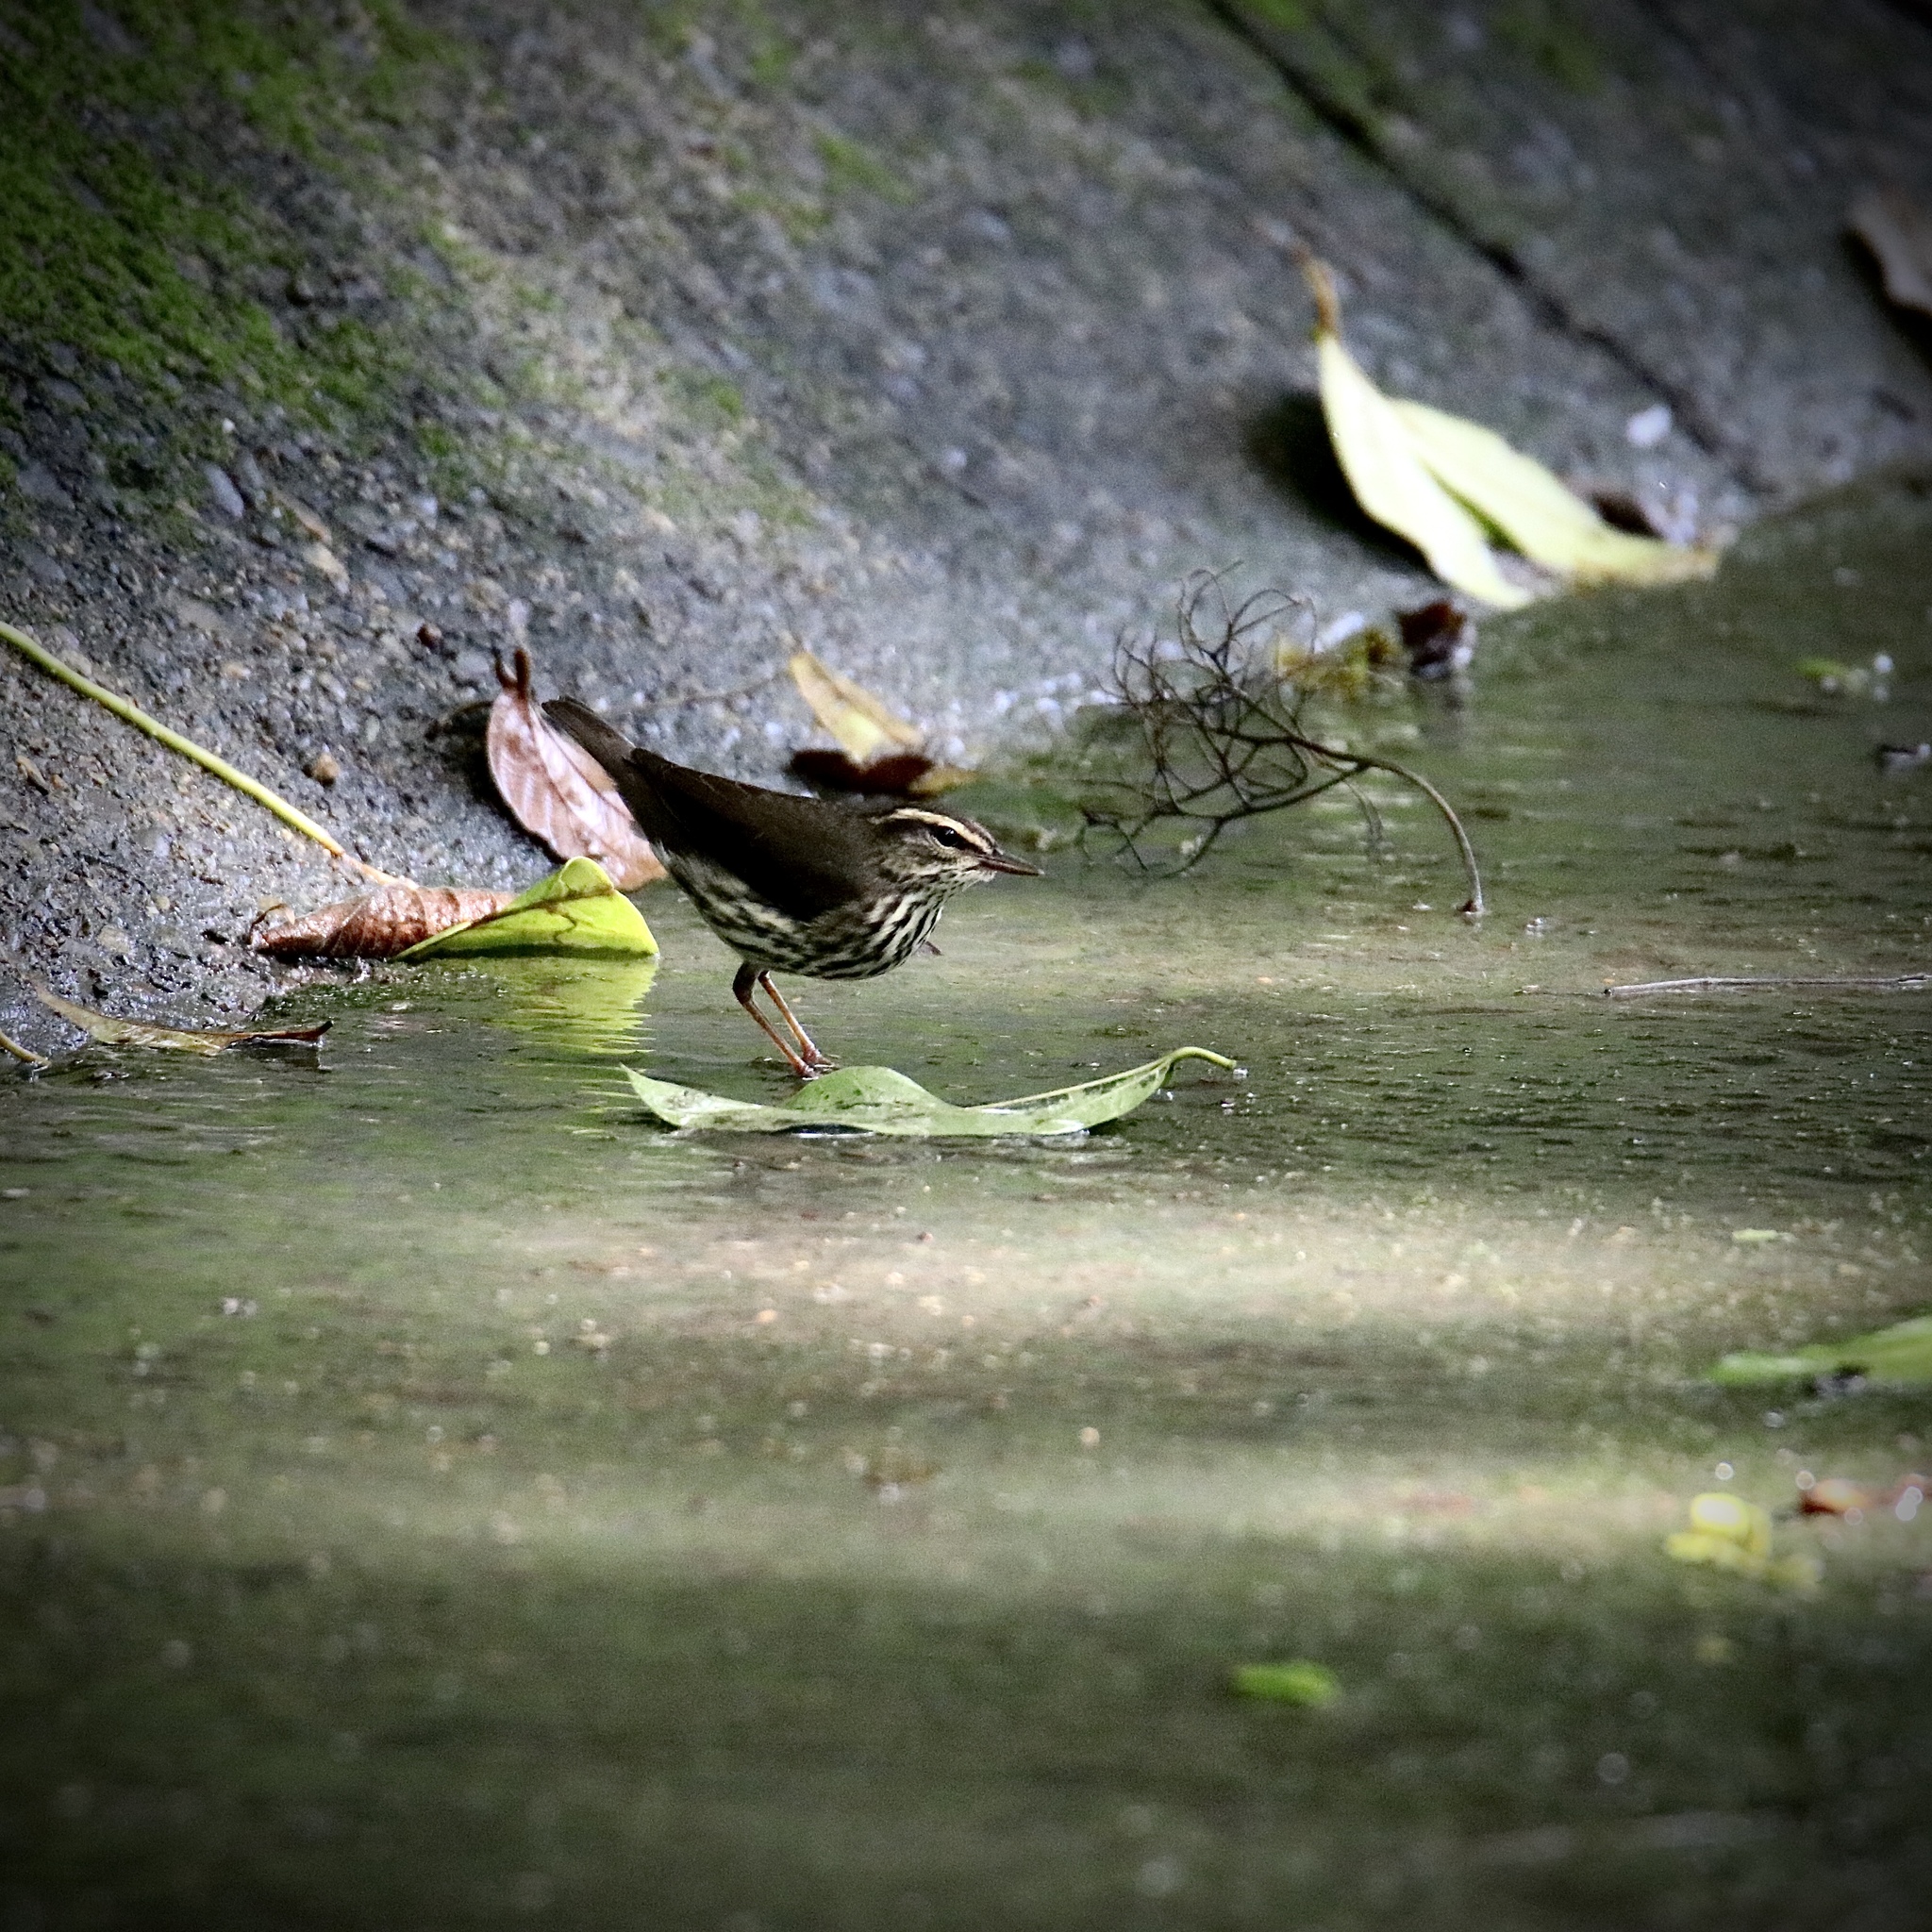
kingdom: Animalia
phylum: Chordata
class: Aves
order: Passeriformes
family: Parulidae
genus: Parkesia
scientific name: Parkesia noveboracensis
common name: Northern waterthrush
